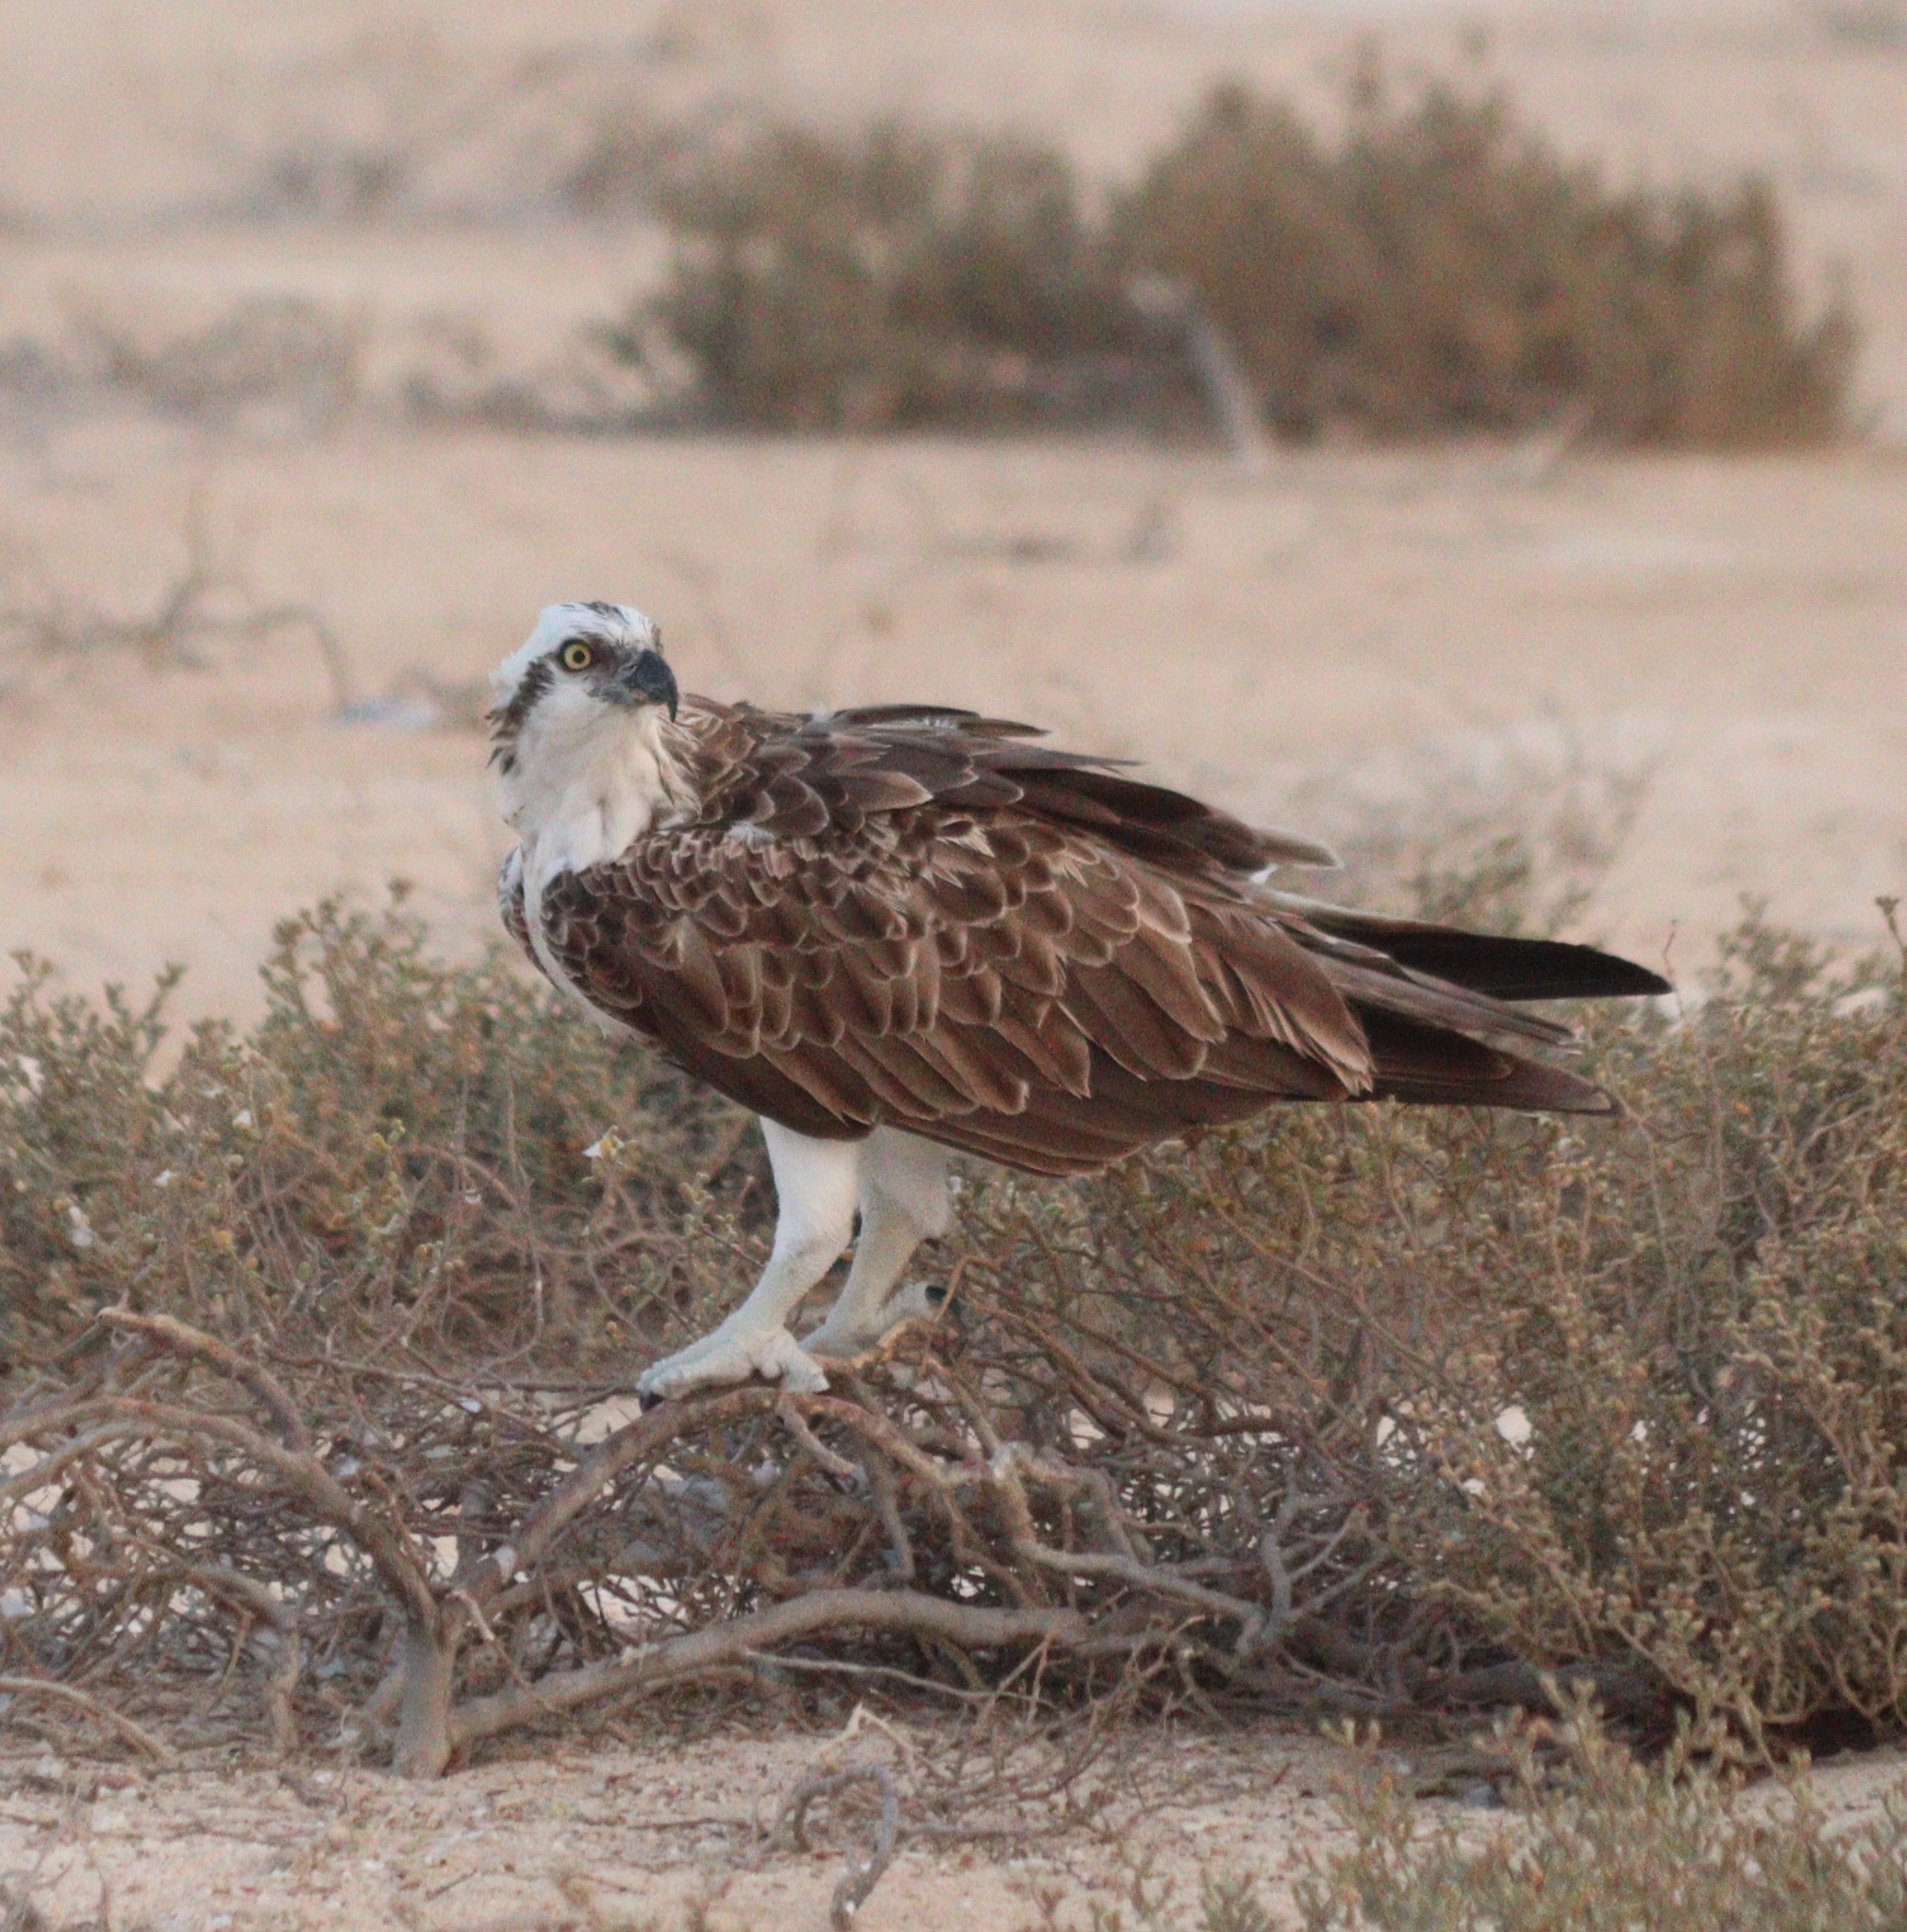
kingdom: Animalia
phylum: Chordata
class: Aves
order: Accipitriformes
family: Pandionidae
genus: Pandion
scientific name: Pandion haliaetus
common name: Osprey
